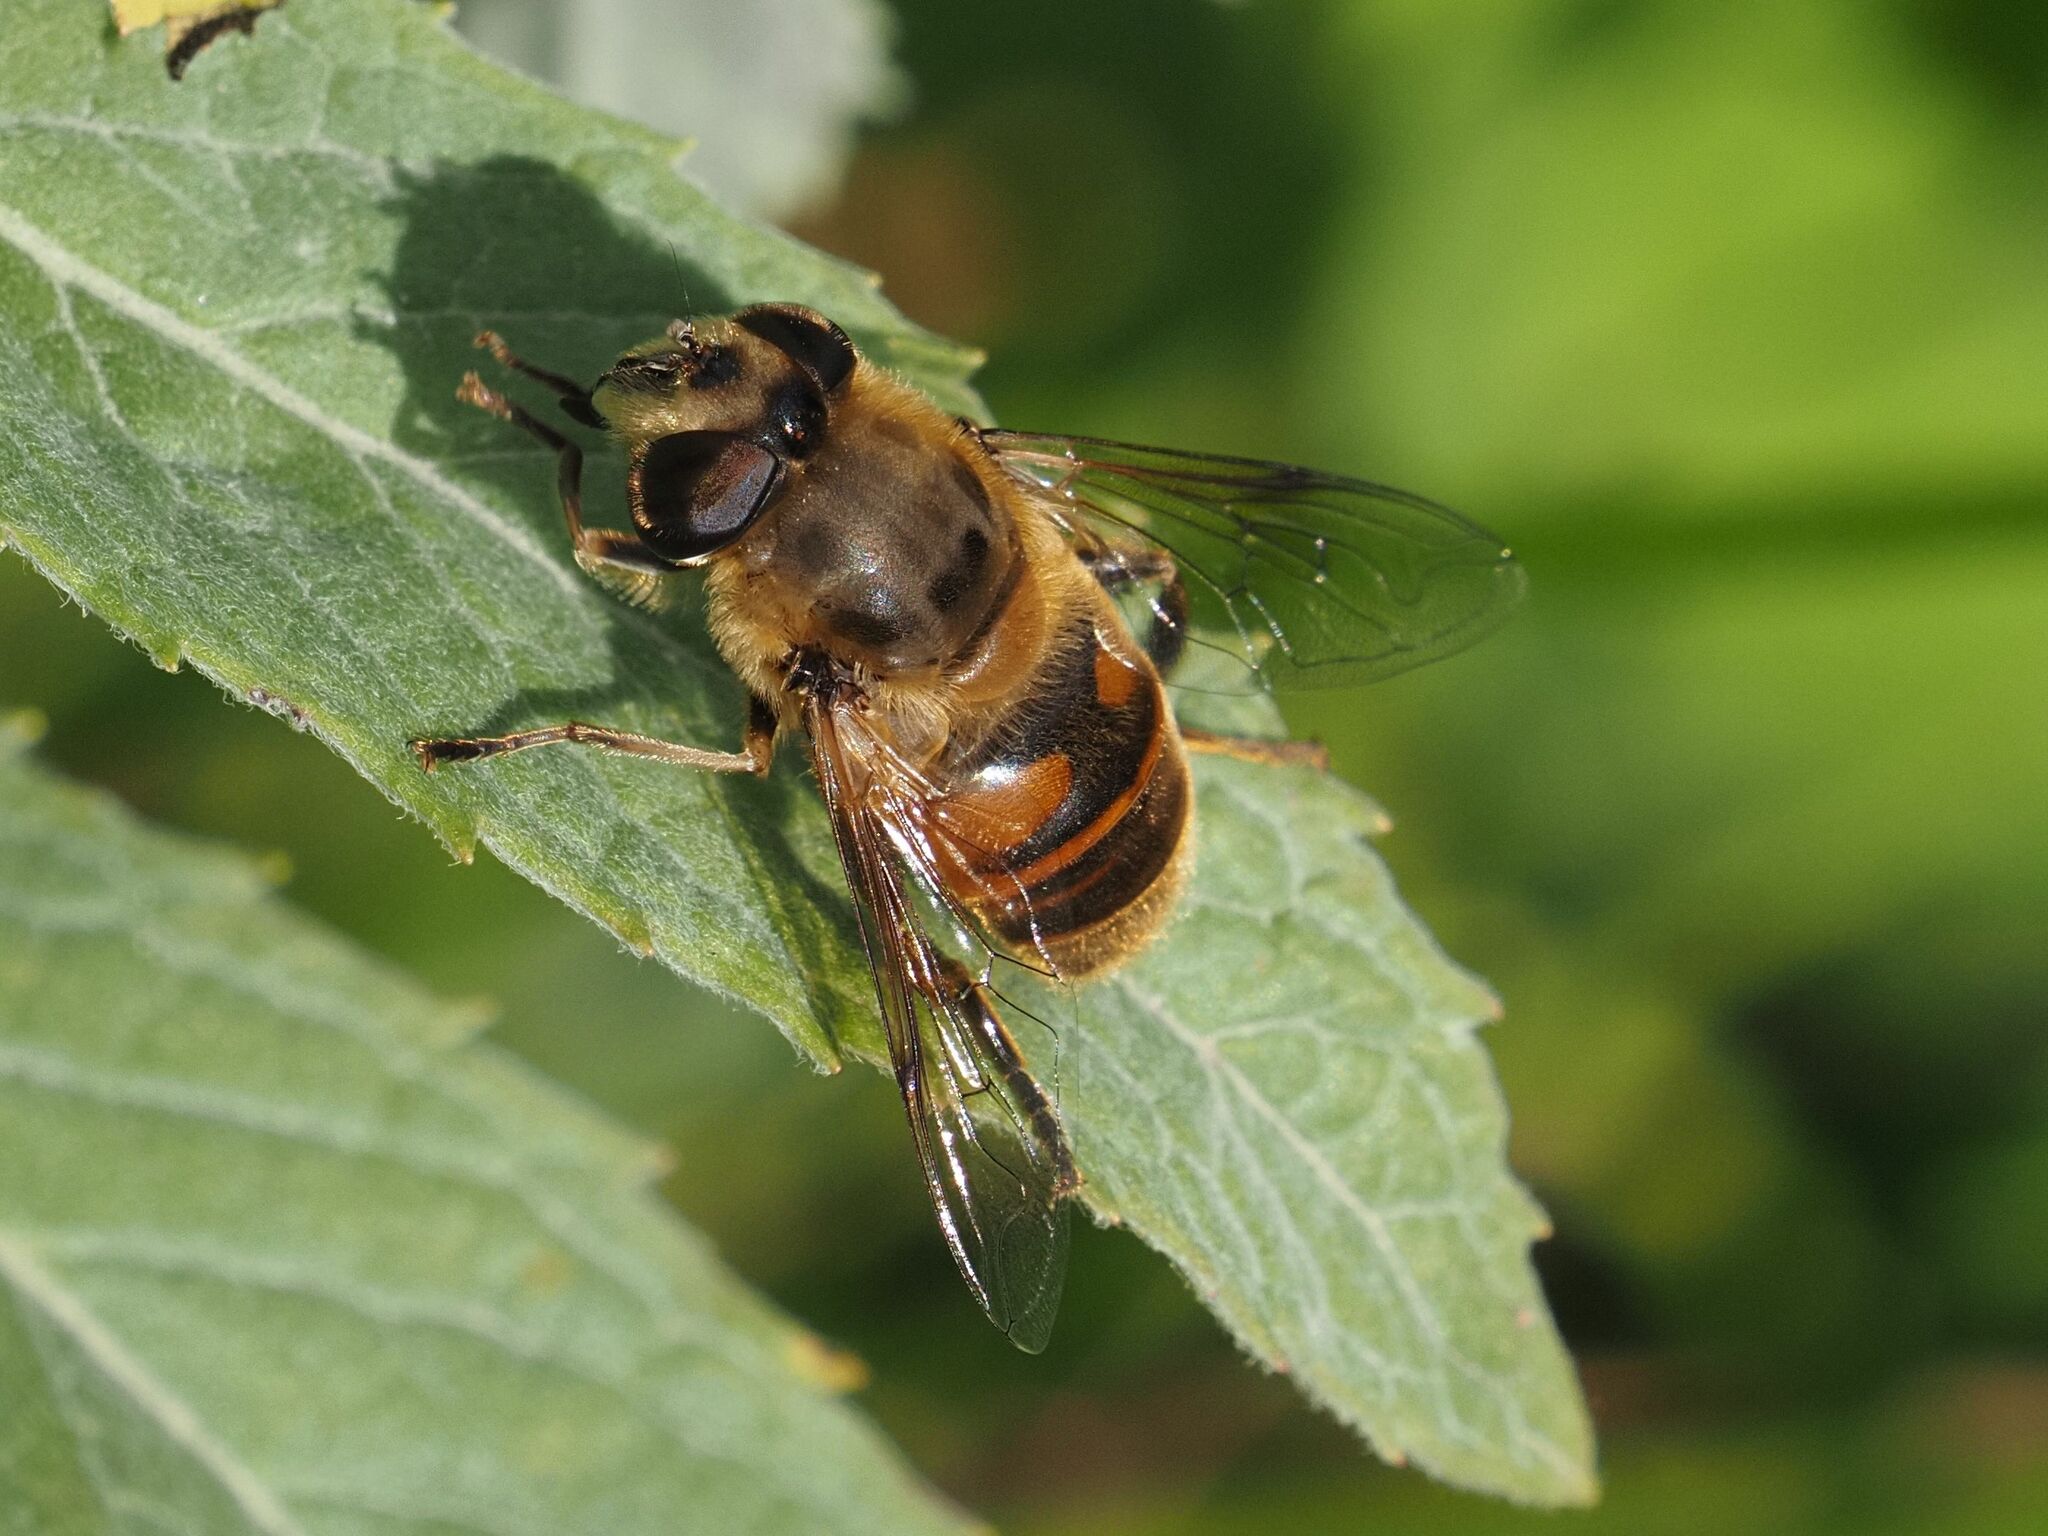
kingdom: Animalia
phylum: Arthropoda
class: Insecta
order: Diptera
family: Syrphidae
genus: Eristalis
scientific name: Eristalis tenax
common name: Drone fly
